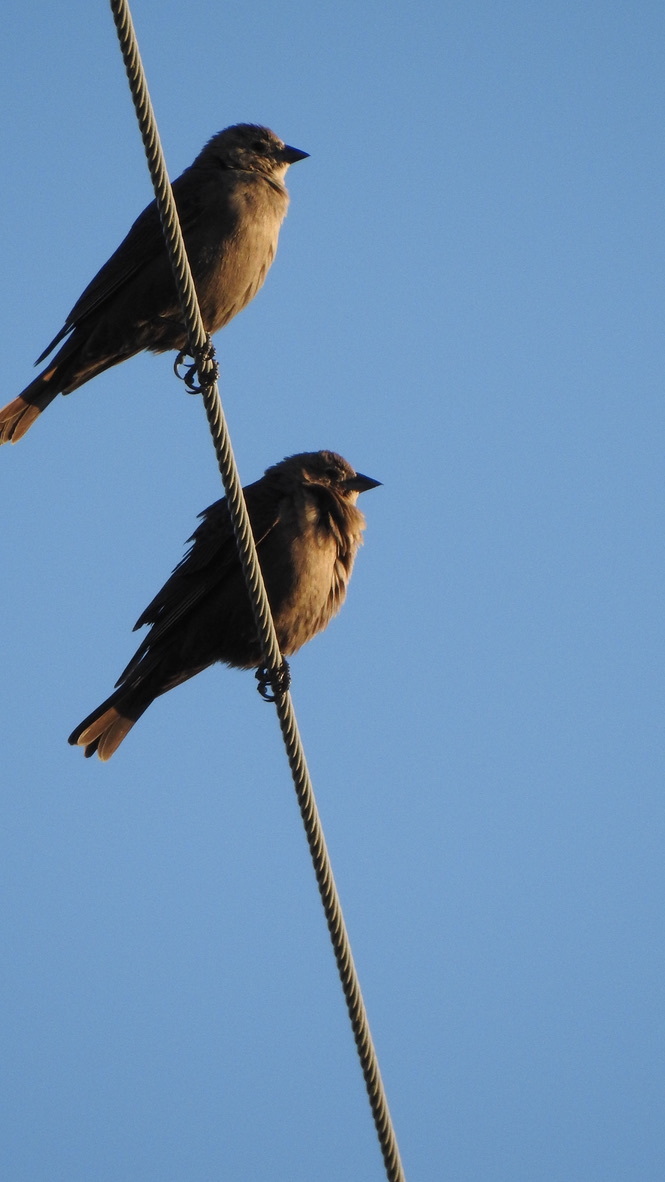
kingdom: Animalia
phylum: Chordata
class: Aves
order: Passeriformes
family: Icteridae
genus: Molothrus
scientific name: Molothrus ater
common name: Brown-headed cowbird
